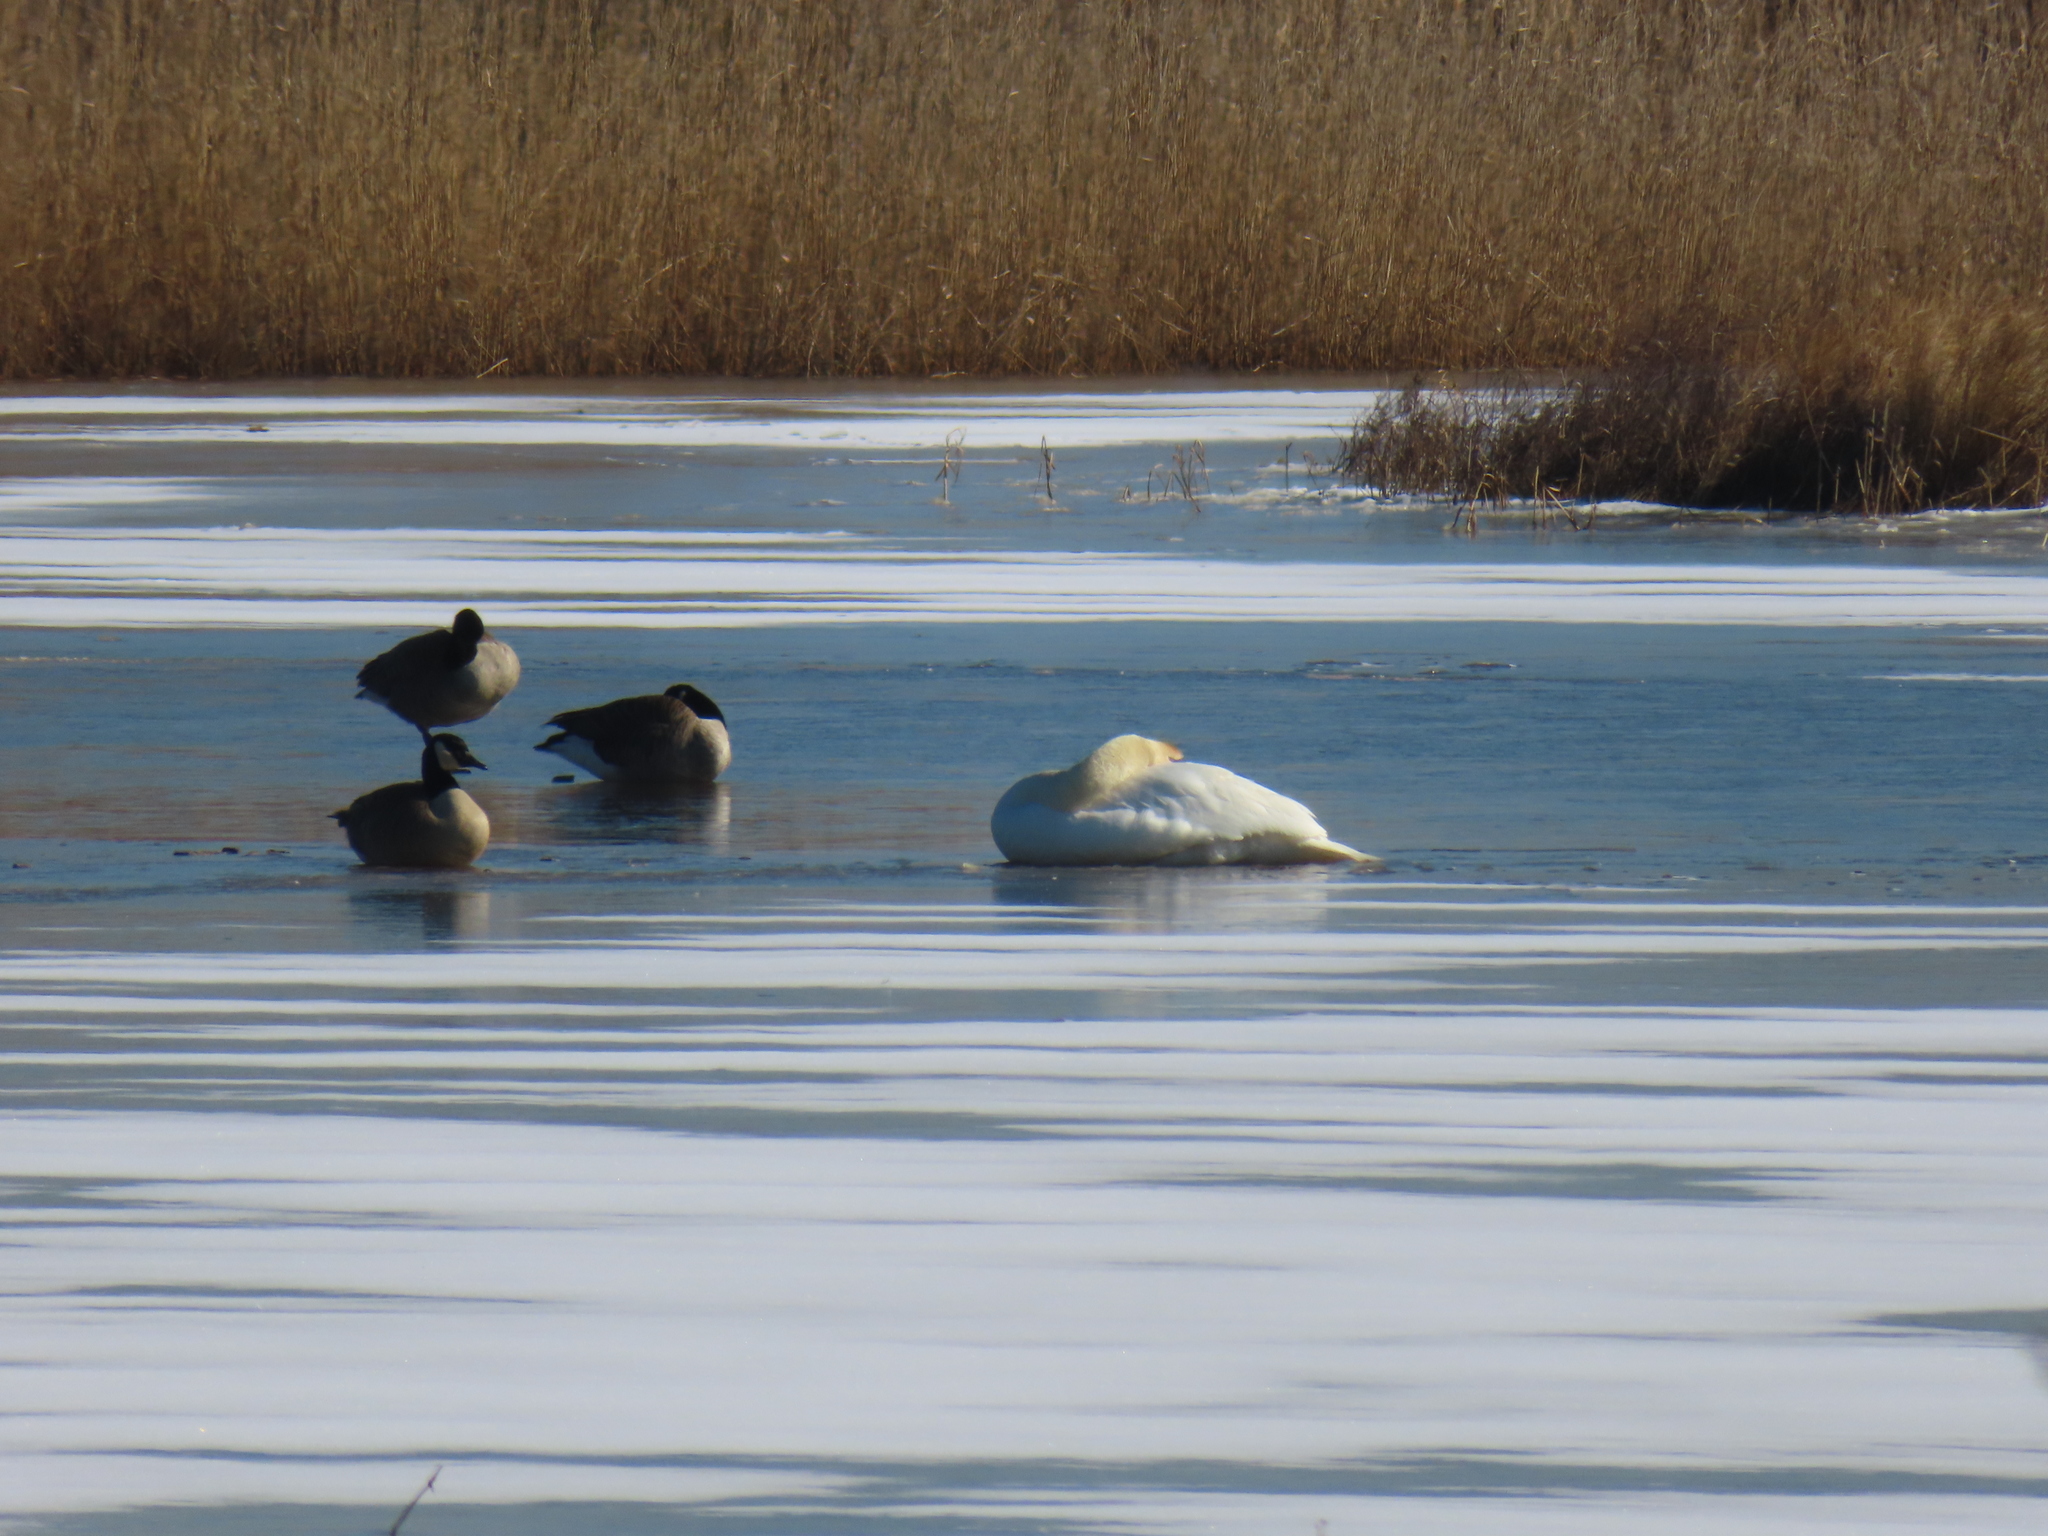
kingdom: Animalia
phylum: Chordata
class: Aves
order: Anseriformes
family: Anatidae
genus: Cygnus
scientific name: Cygnus olor
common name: Mute swan
